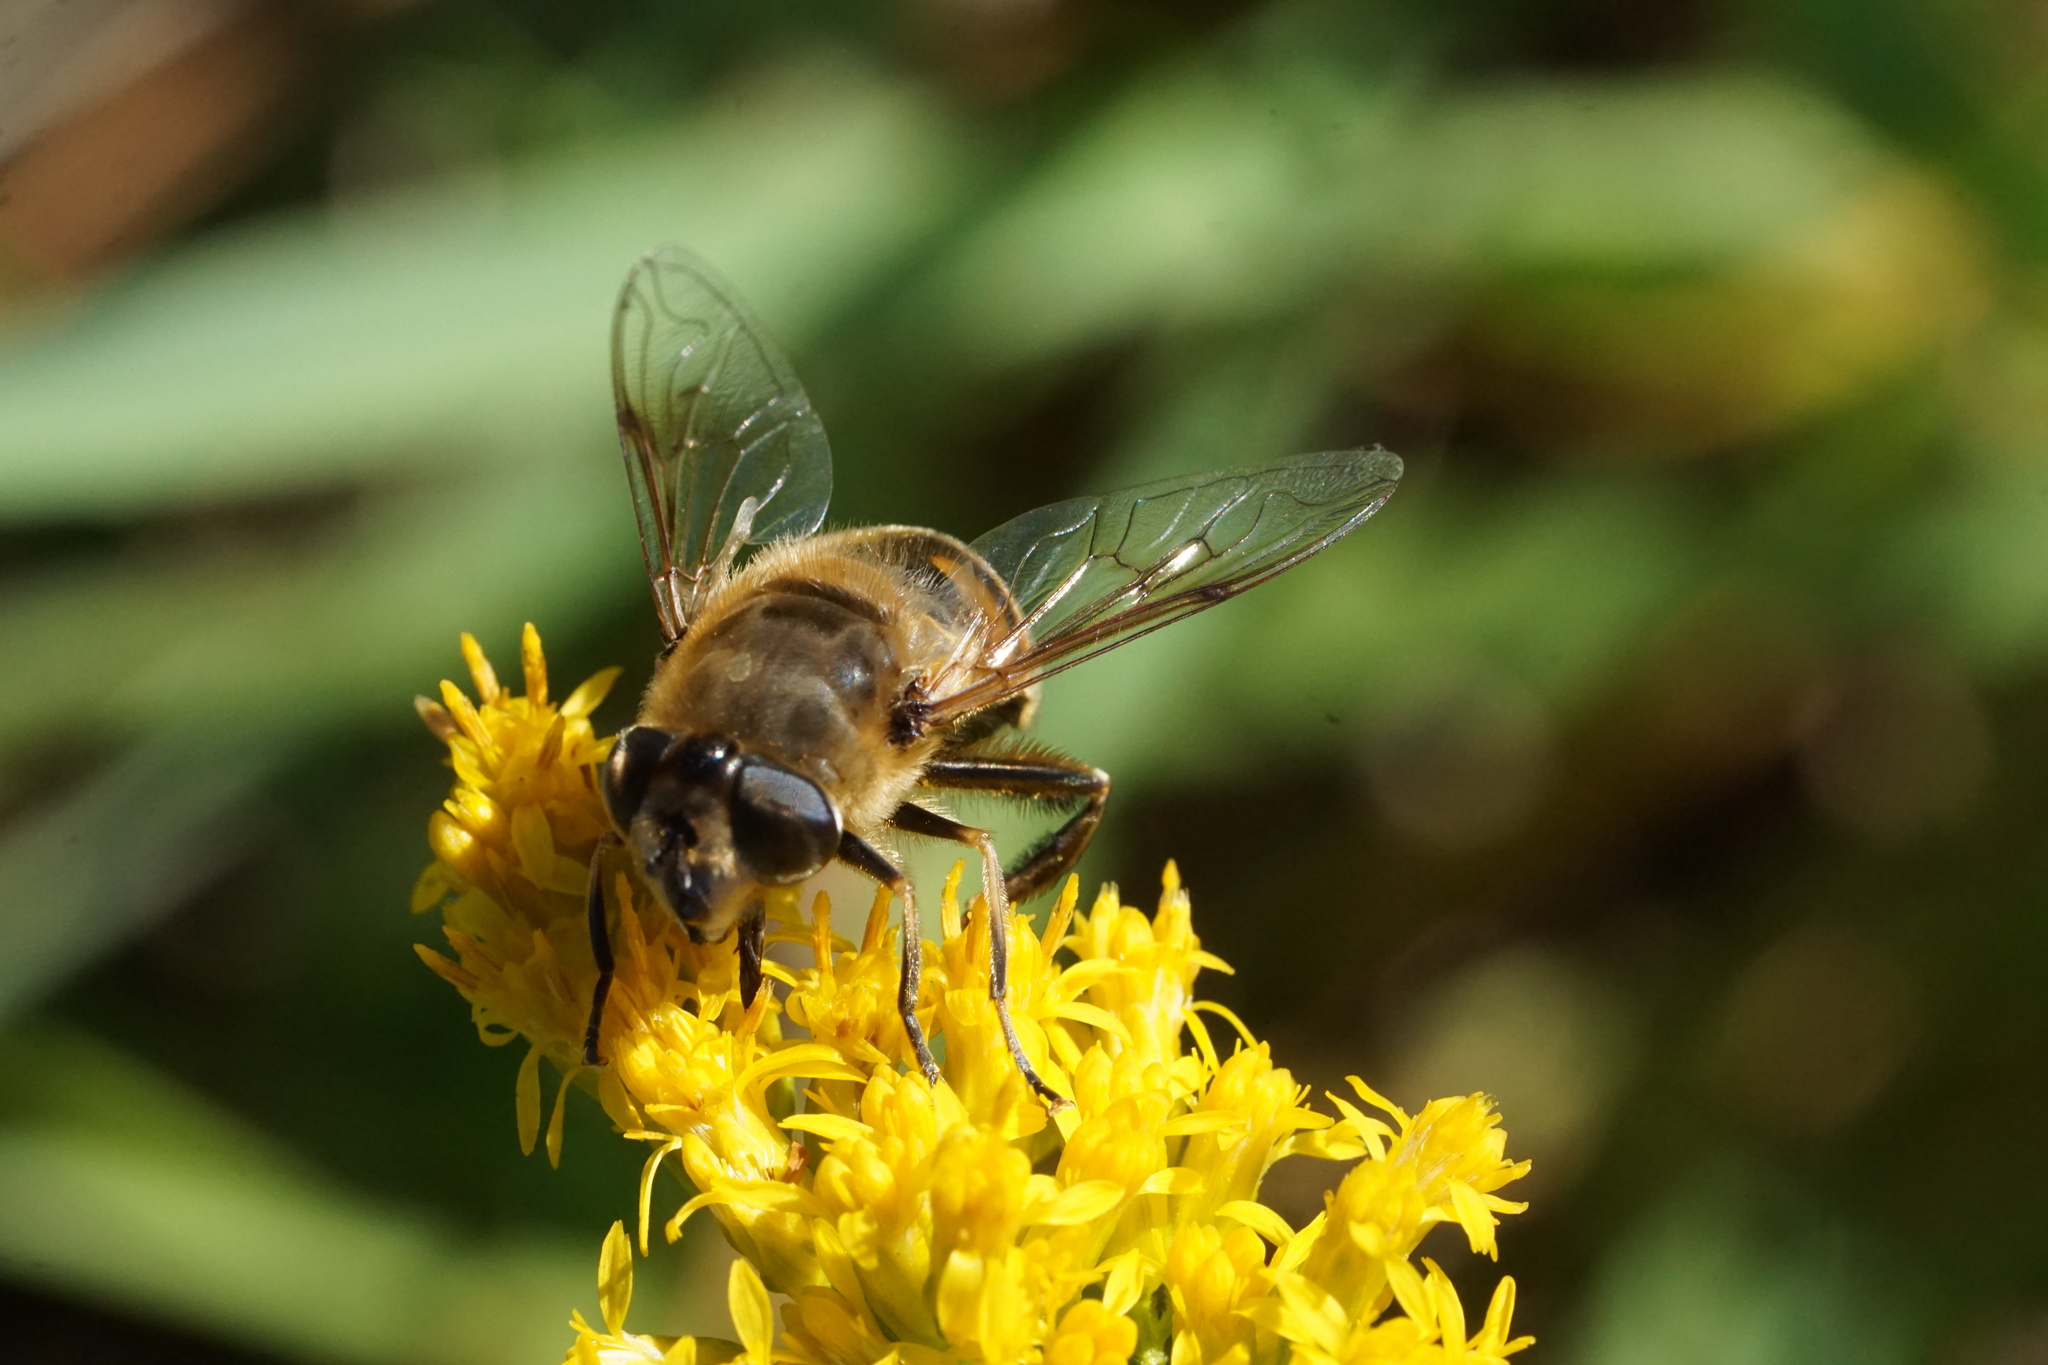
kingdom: Animalia
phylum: Arthropoda
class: Insecta
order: Diptera
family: Syrphidae
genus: Eristalis
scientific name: Eristalis tenax
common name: Drone fly
